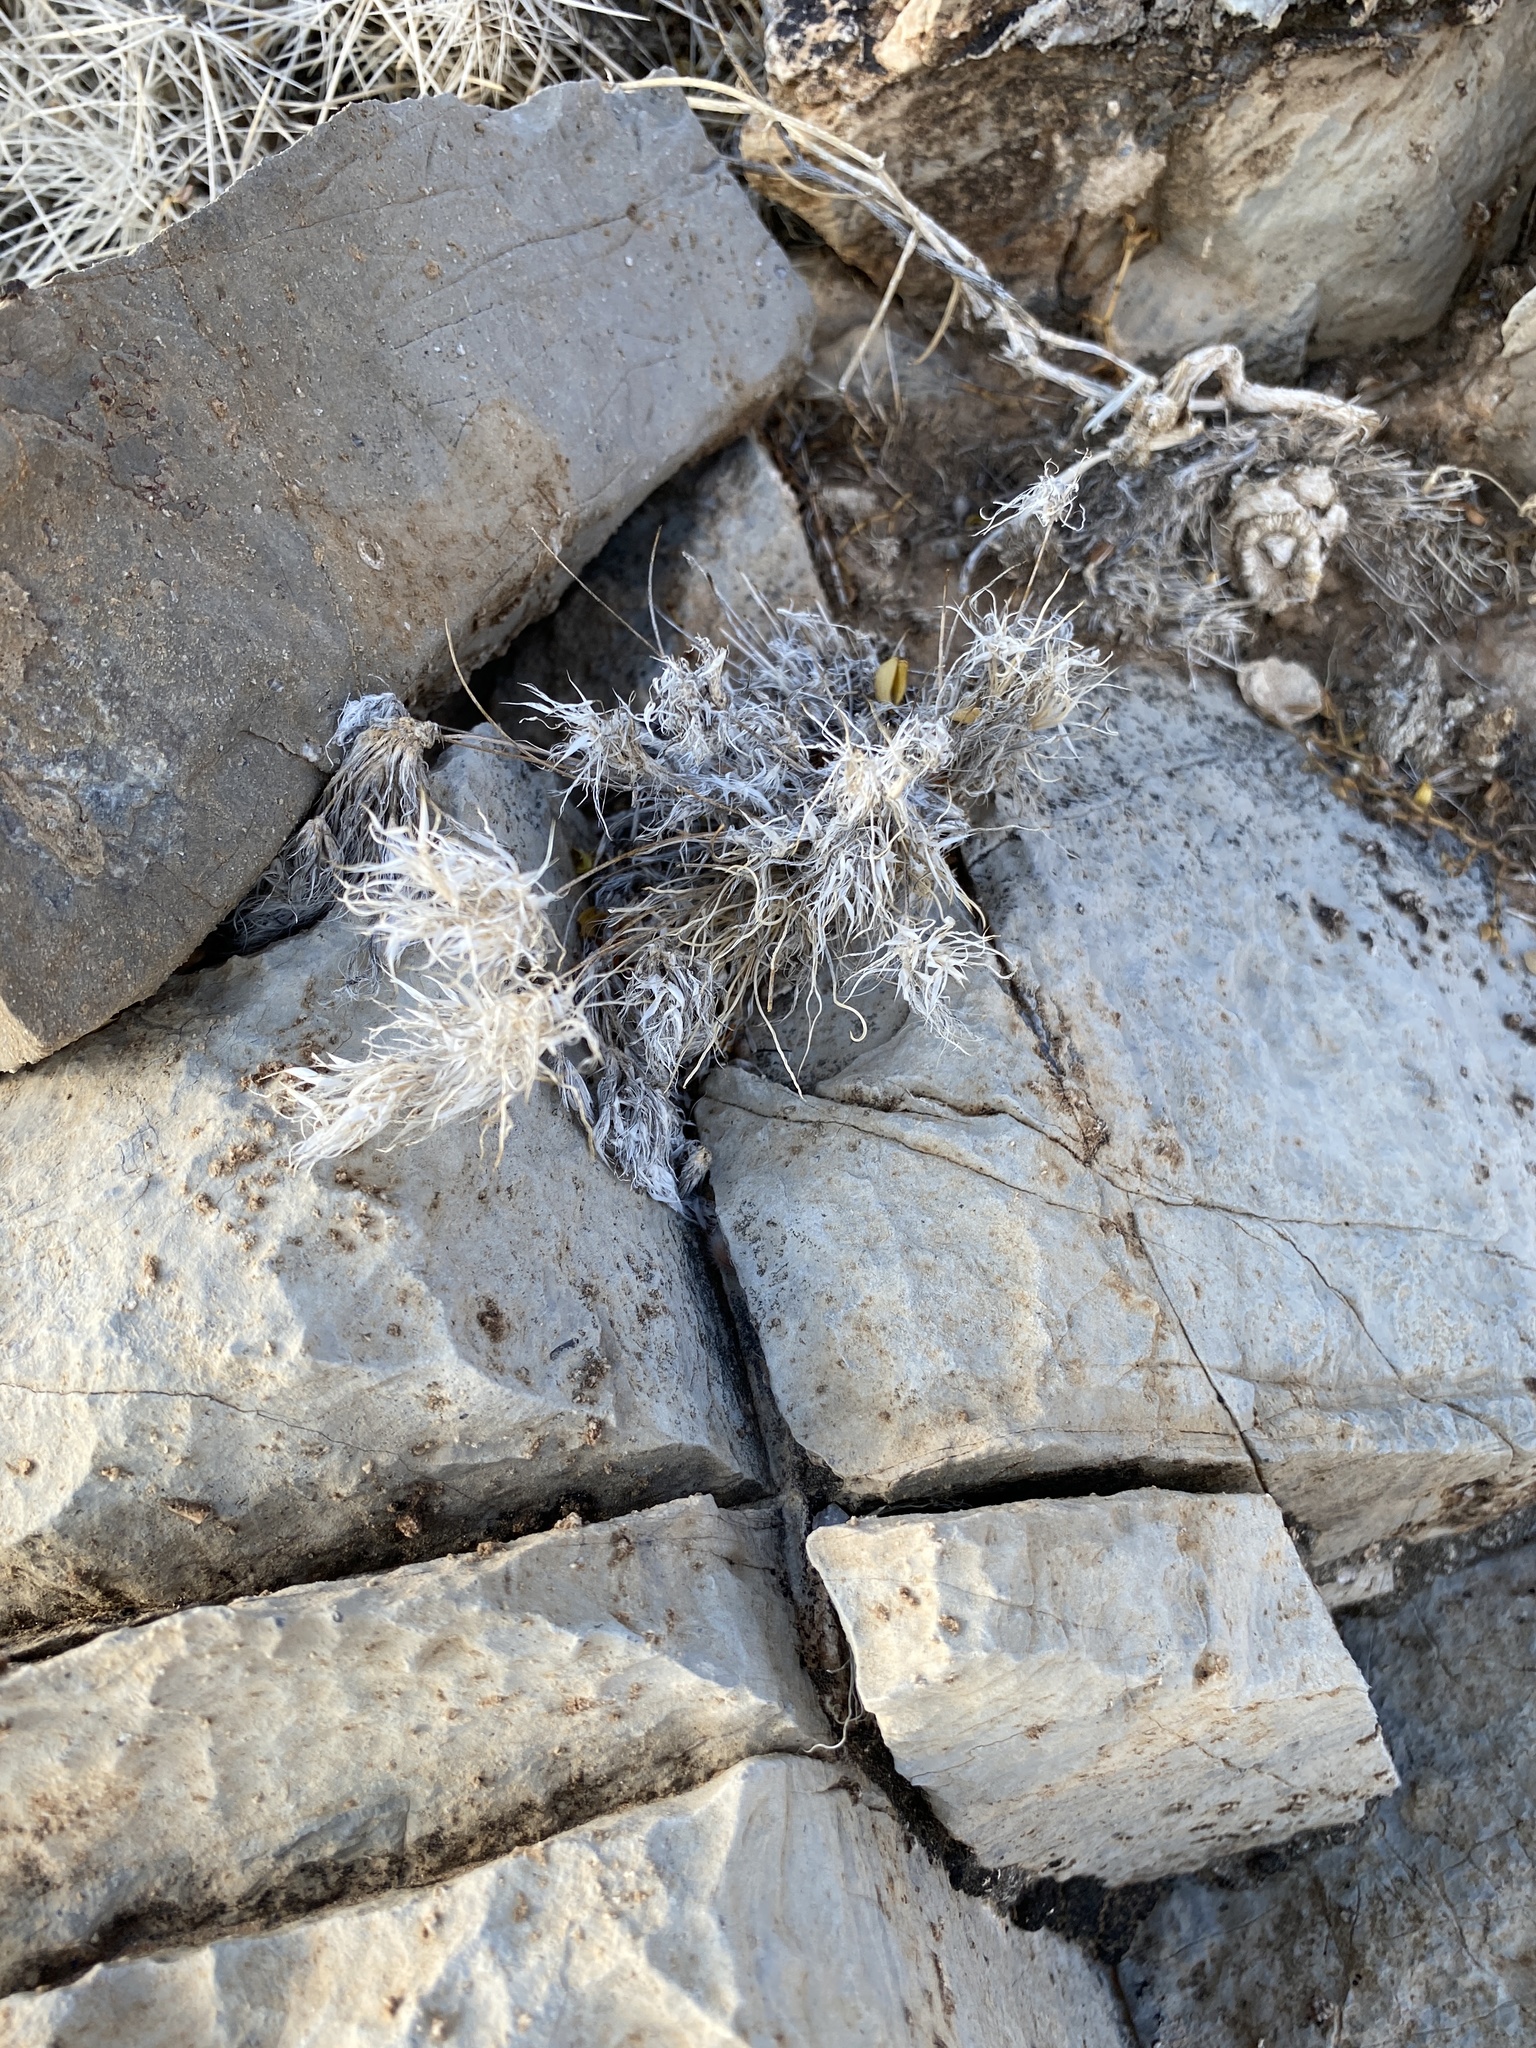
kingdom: Plantae
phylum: Tracheophyta
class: Liliopsida
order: Poales
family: Poaceae
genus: Dasyochloa
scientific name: Dasyochloa pulchella
